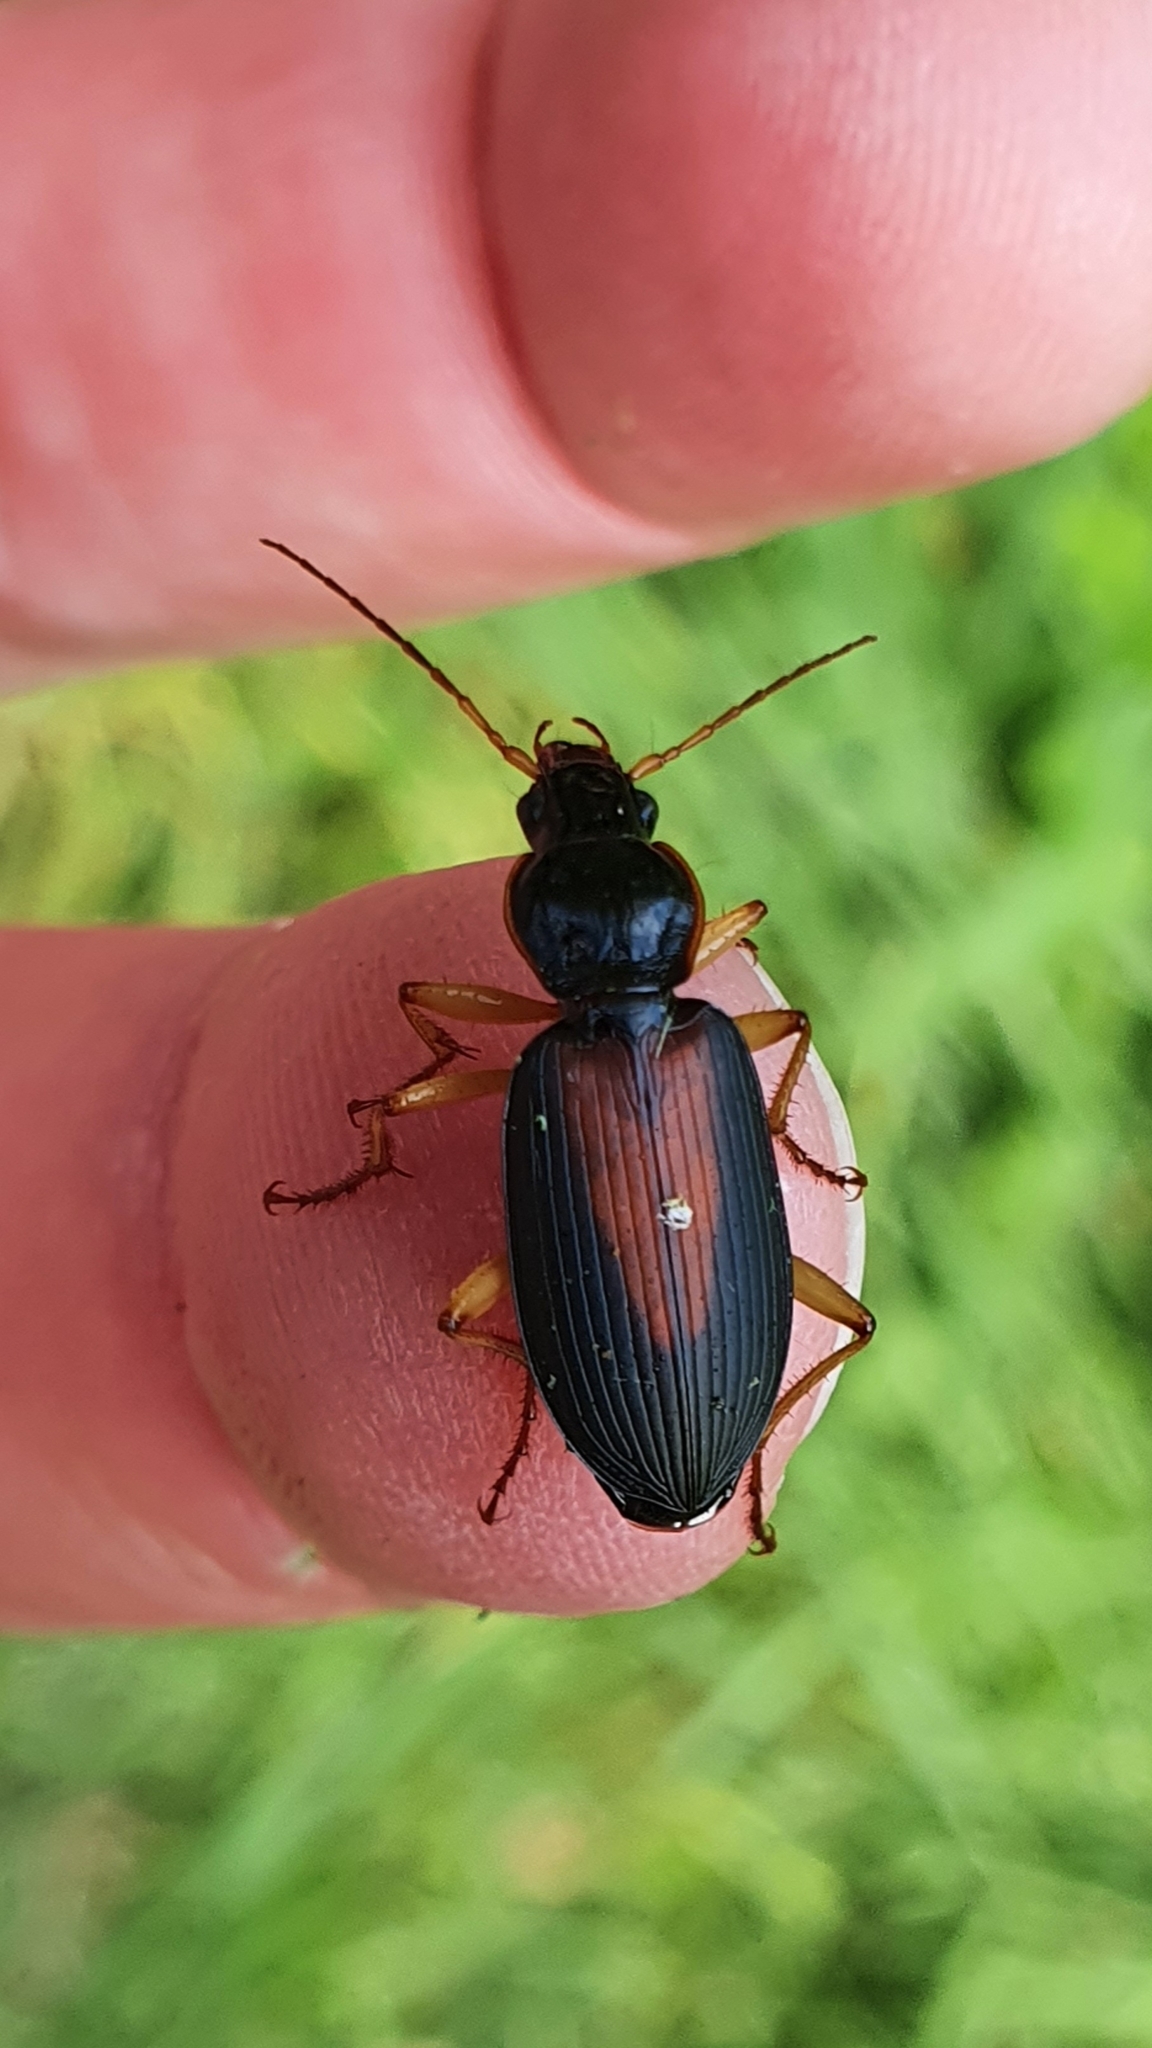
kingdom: Animalia
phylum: Arthropoda
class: Insecta
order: Coleoptera
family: Carabidae
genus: Dolichus
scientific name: Dolichus halensis
